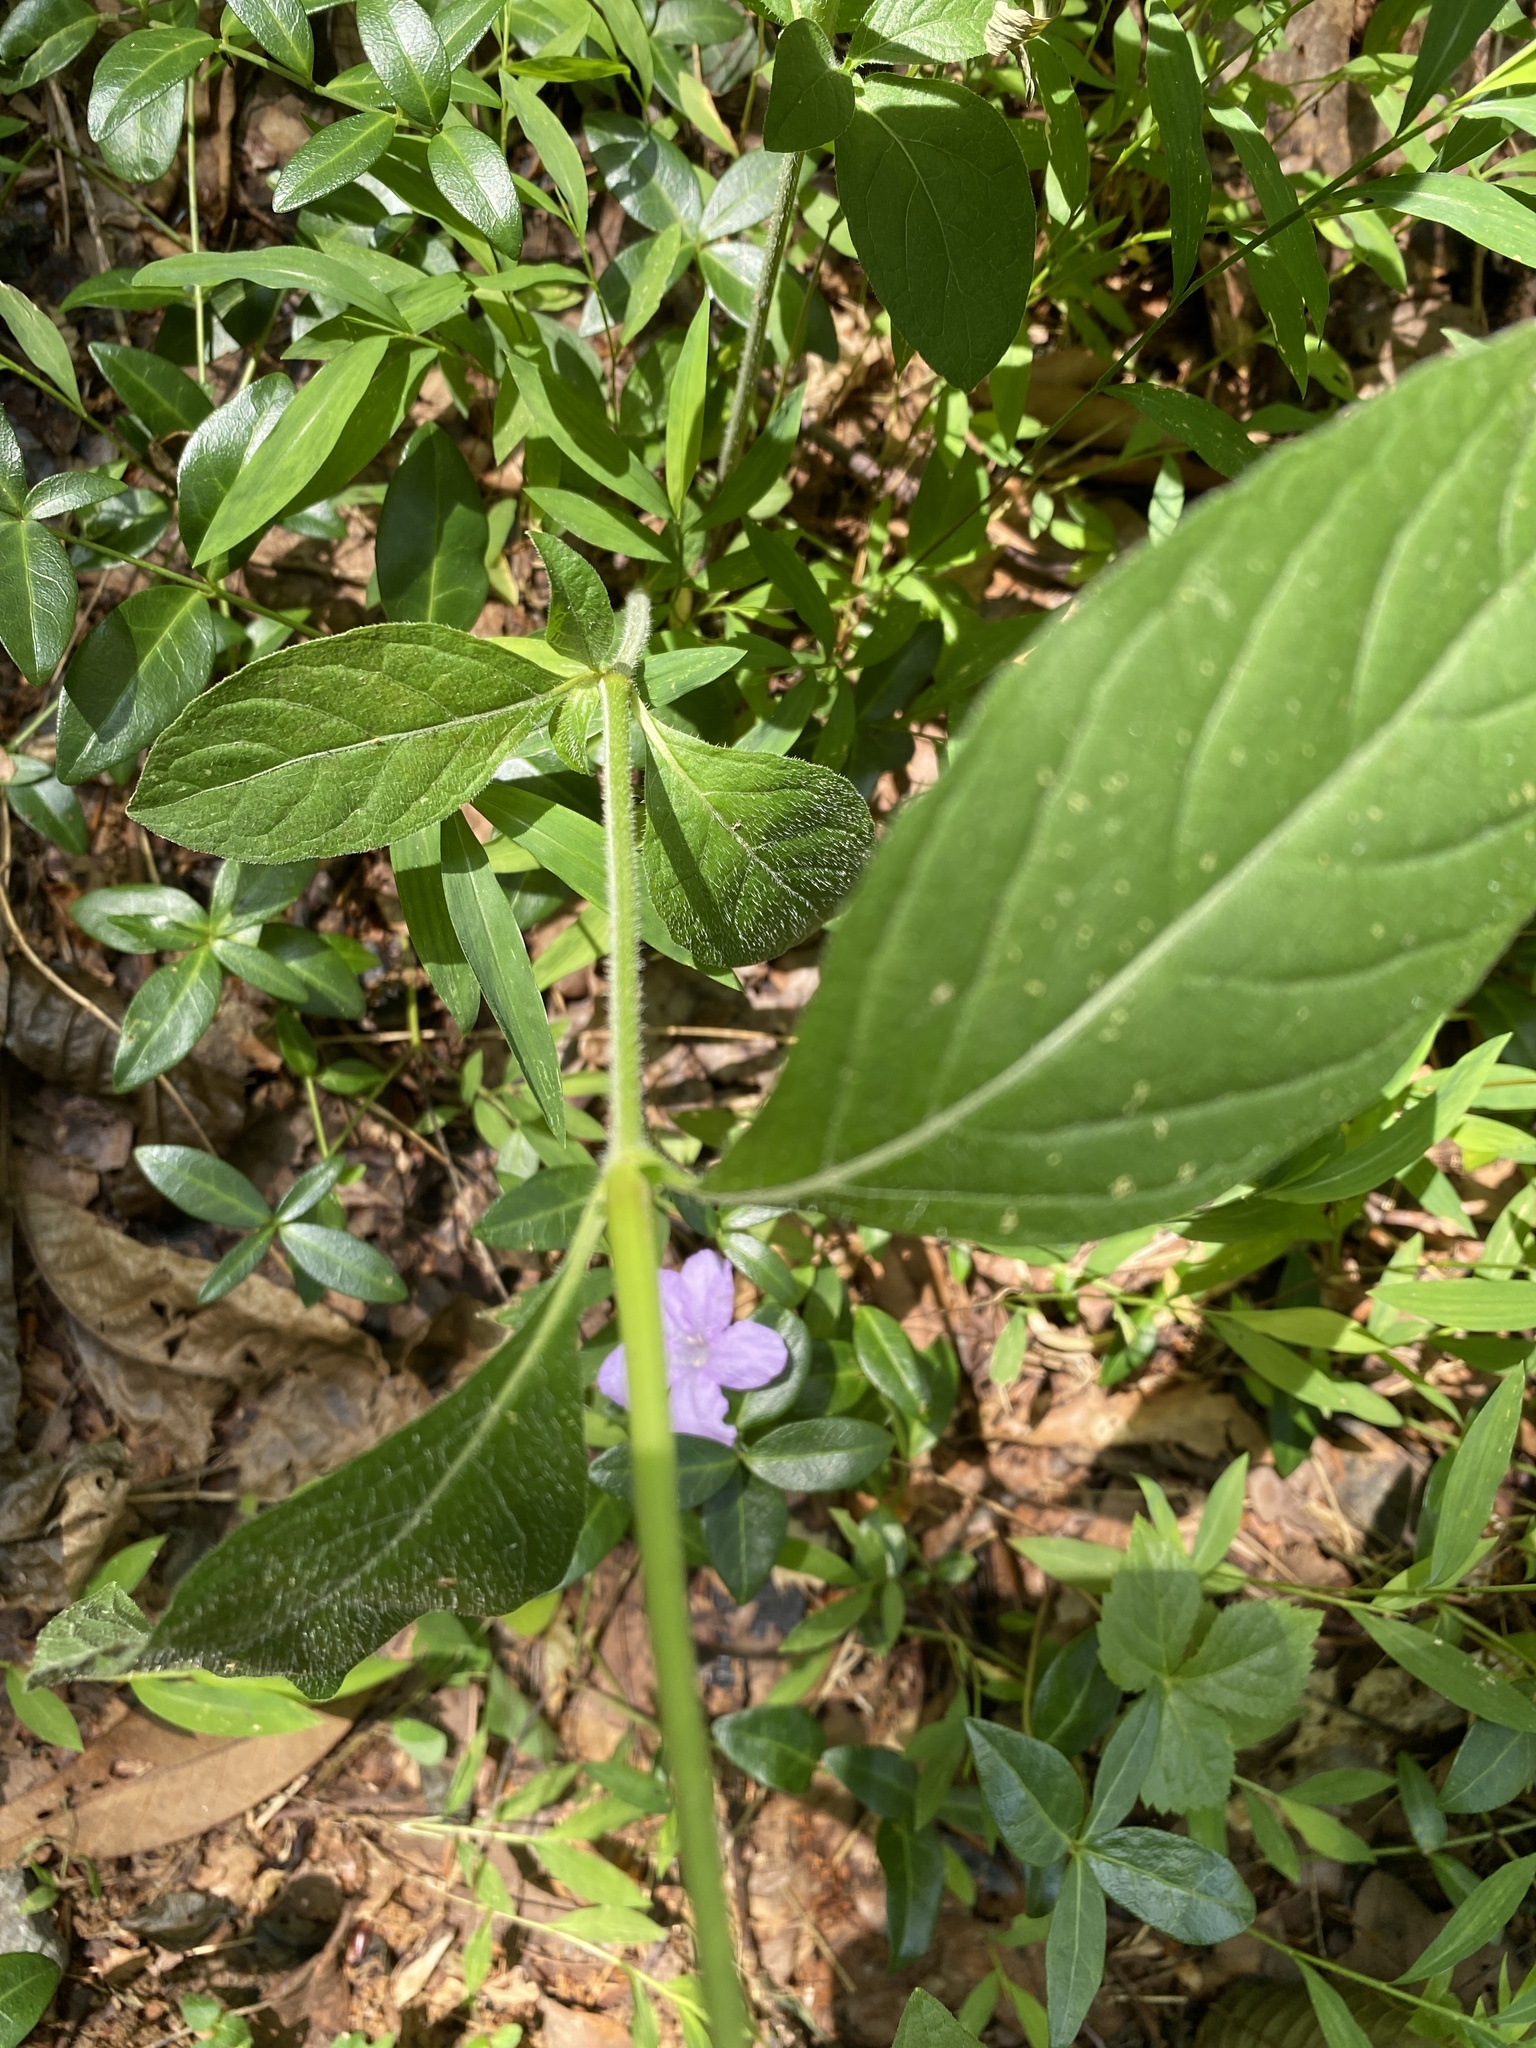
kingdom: Plantae
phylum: Tracheophyta
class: Magnoliopsida
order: Lamiales
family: Acanthaceae
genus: Ruellia
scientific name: Ruellia caroliniensis
